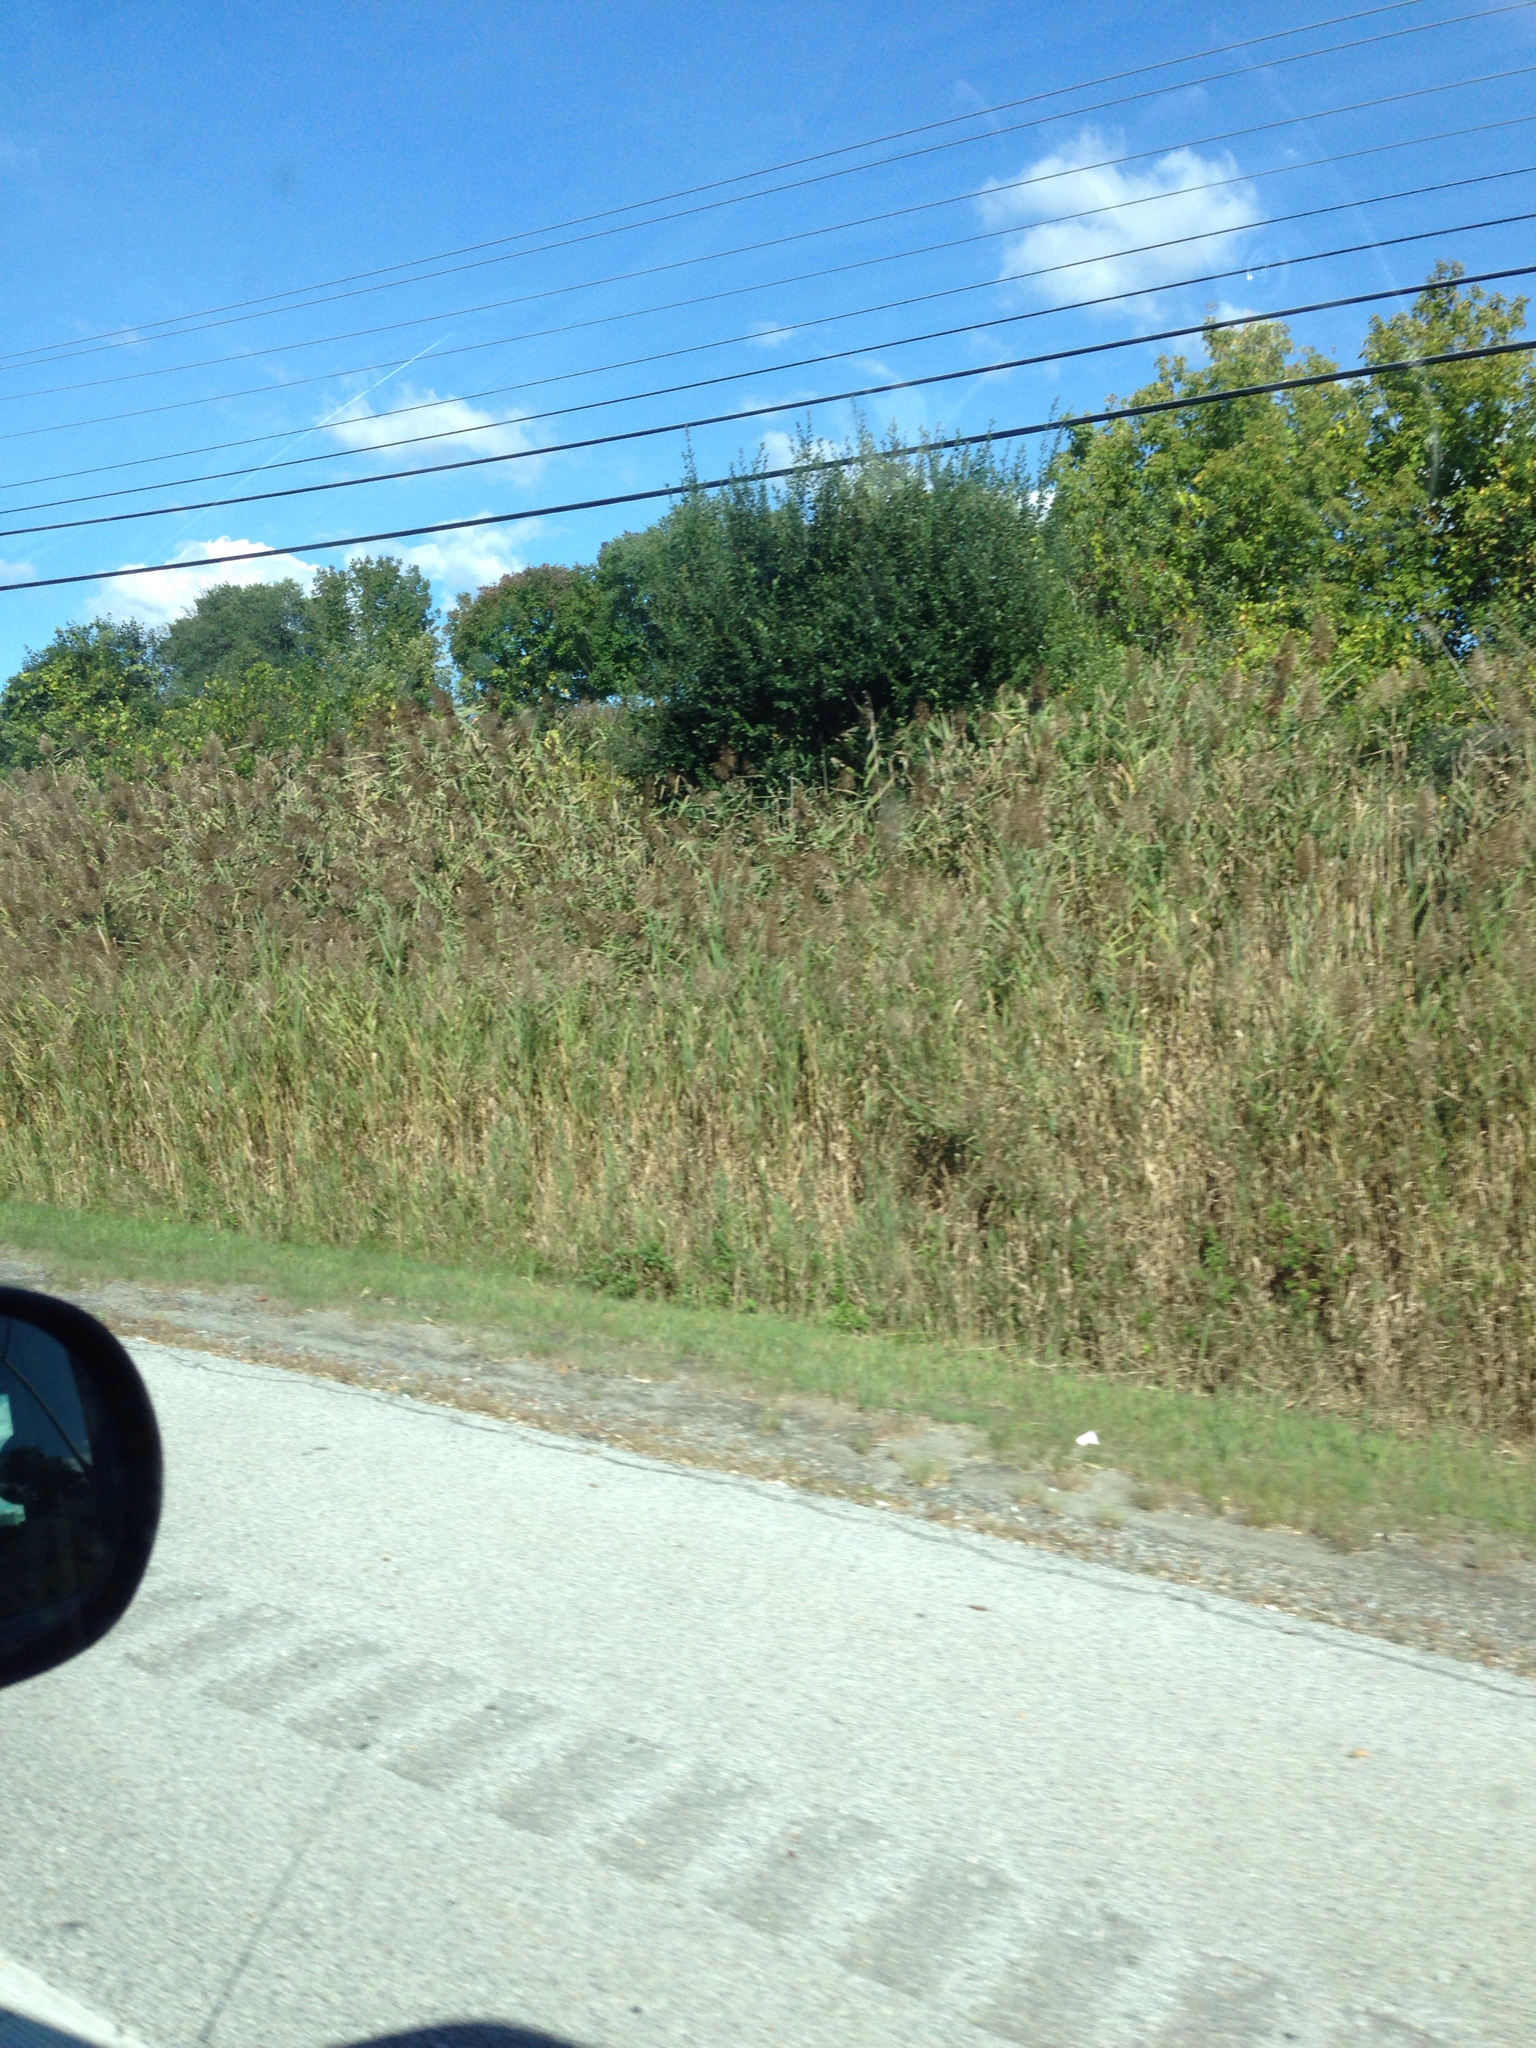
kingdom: Plantae
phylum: Tracheophyta
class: Liliopsida
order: Poales
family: Poaceae
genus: Phragmites
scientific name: Phragmites australis
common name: Common reed
